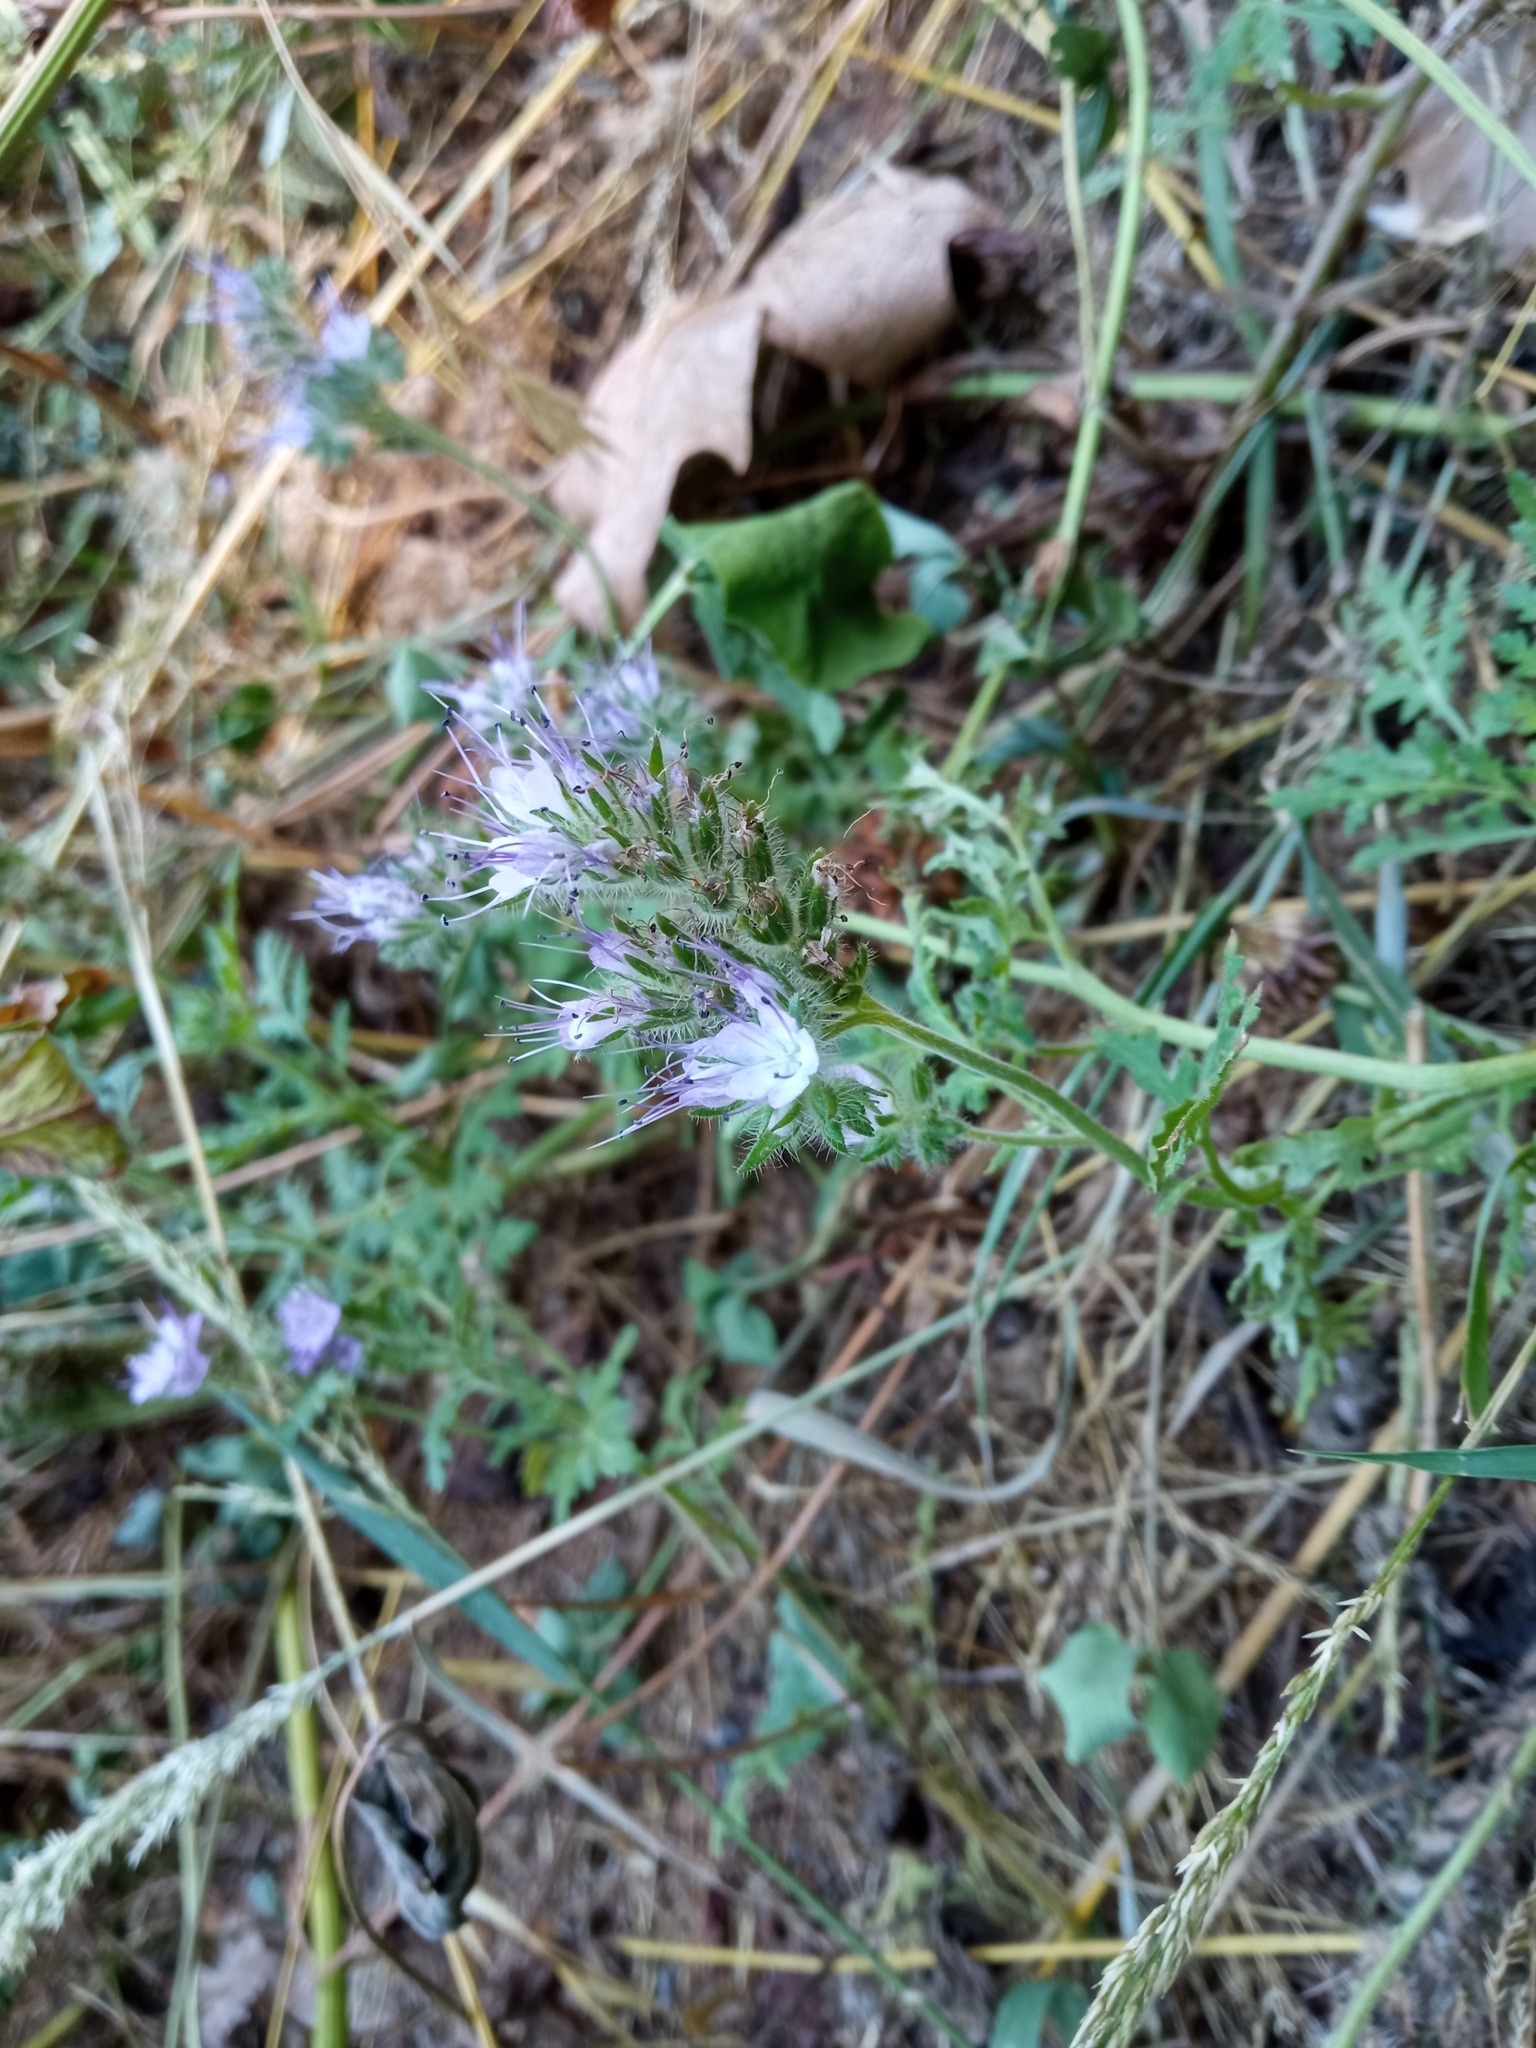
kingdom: Plantae
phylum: Tracheophyta
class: Magnoliopsida
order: Boraginales
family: Hydrophyllaceae
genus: Phacelia
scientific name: Phacelia tanacetifolia
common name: Phacelia
